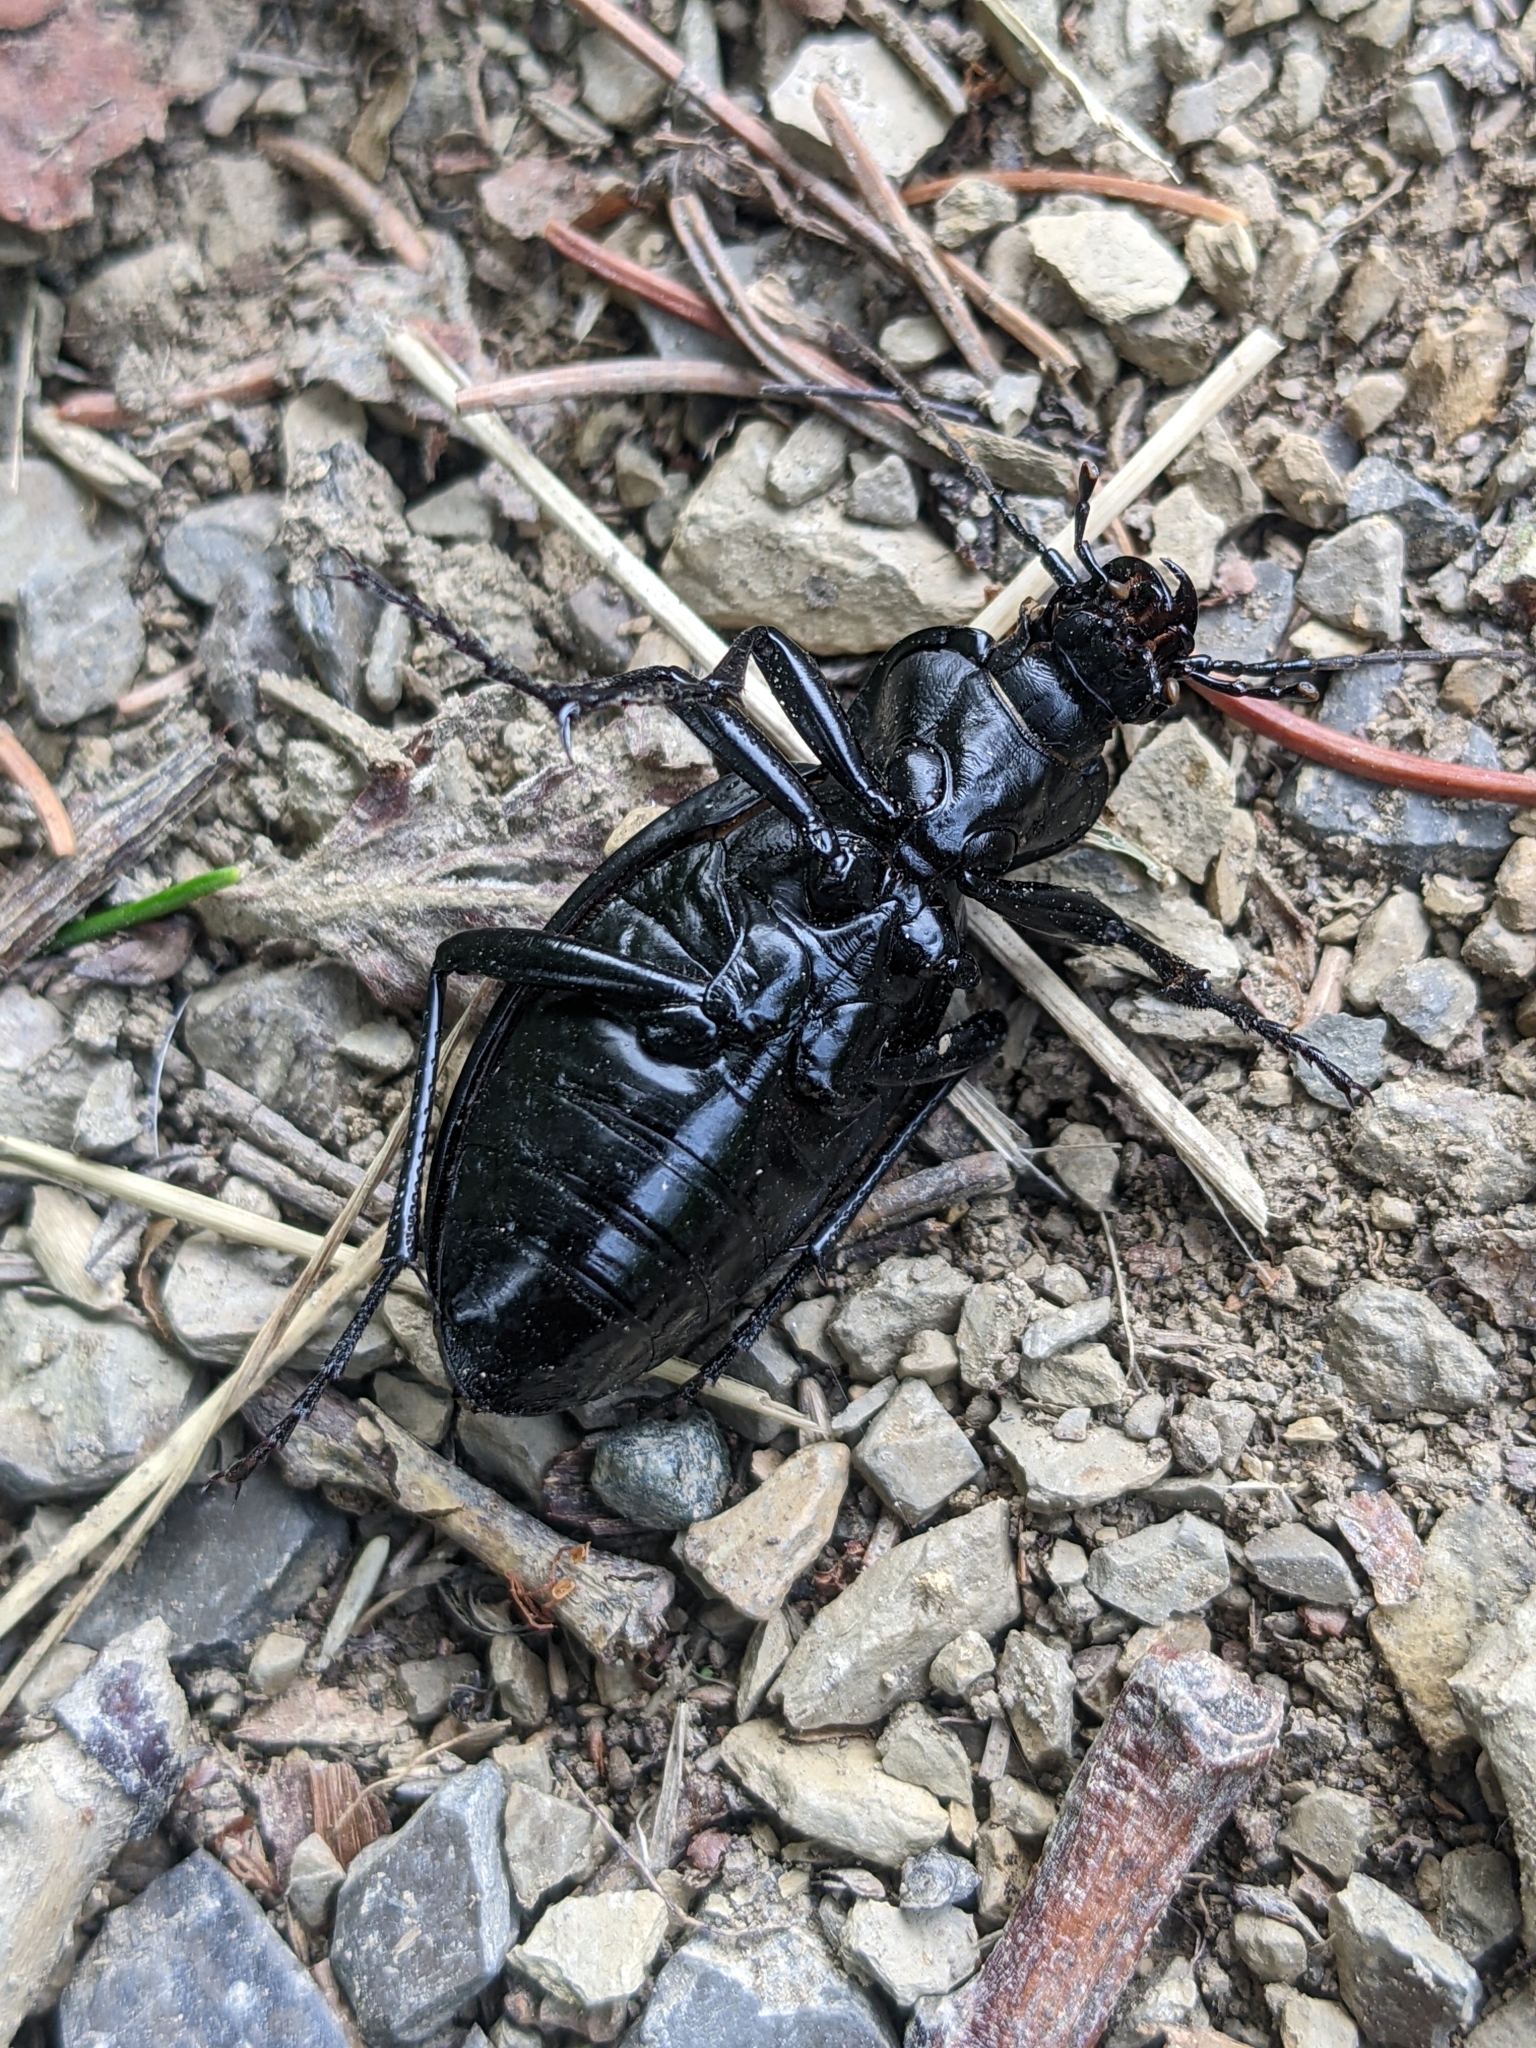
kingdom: Animalia
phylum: Arthropoda
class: Insecta
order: Coleoptera
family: Carabidae
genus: Carabus
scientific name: Carabus coriaceus
